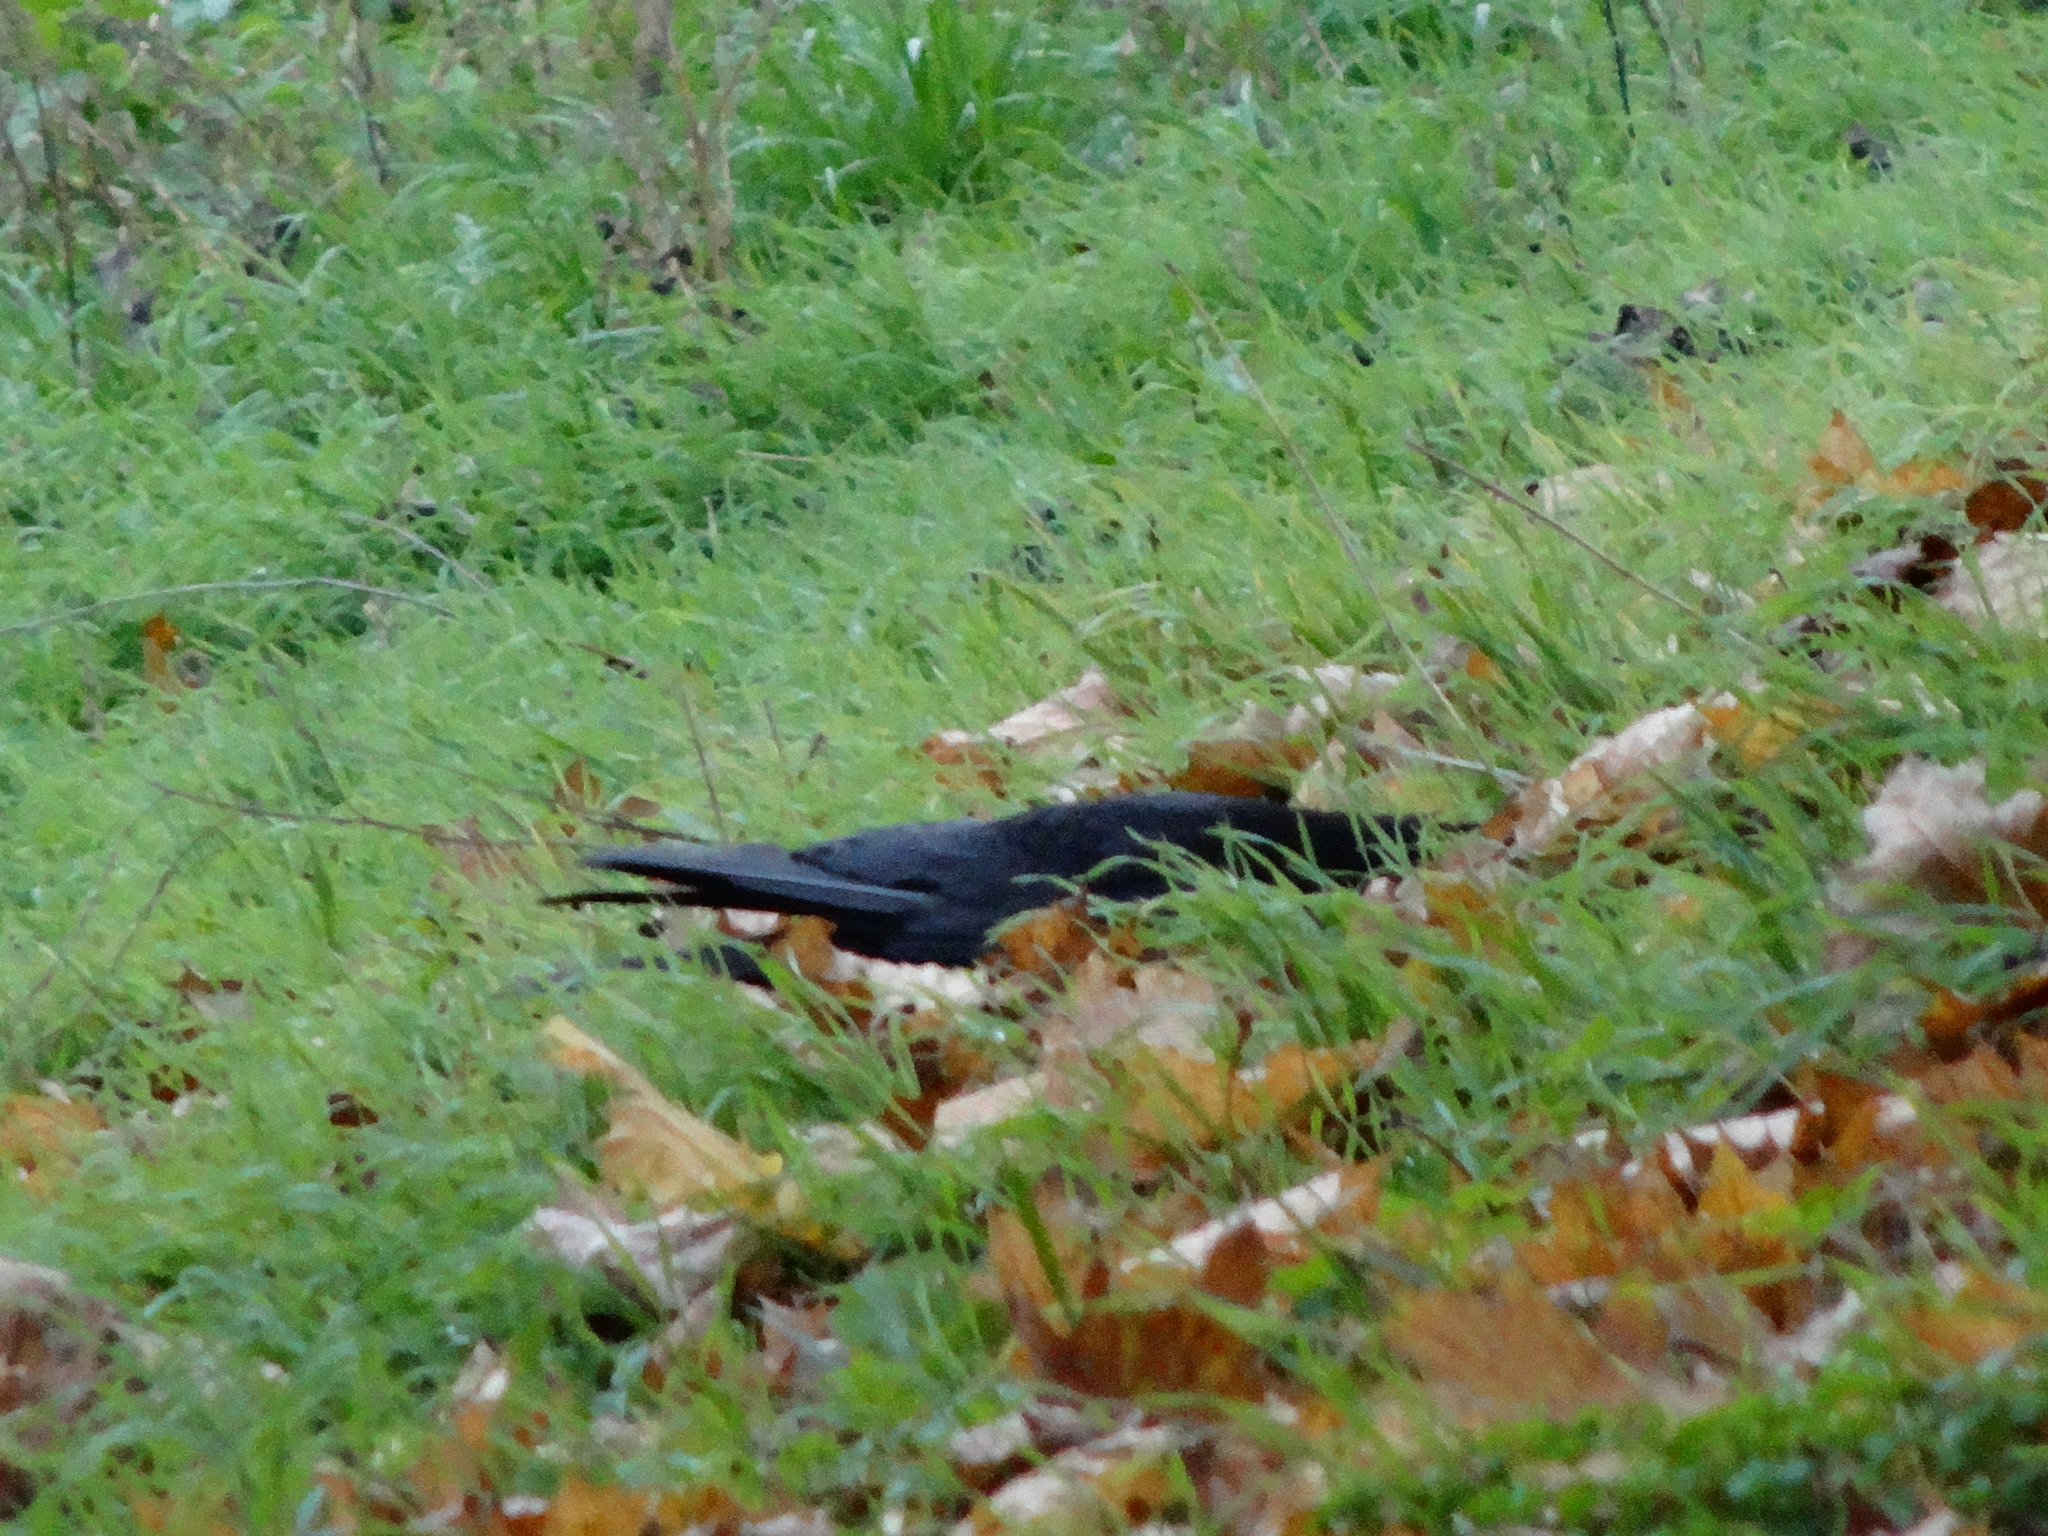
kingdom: Animalia
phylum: Chordata
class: Aves
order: Passeriformes
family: Corvidae
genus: Corvus
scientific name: Corvus corone
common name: Carrion crow
